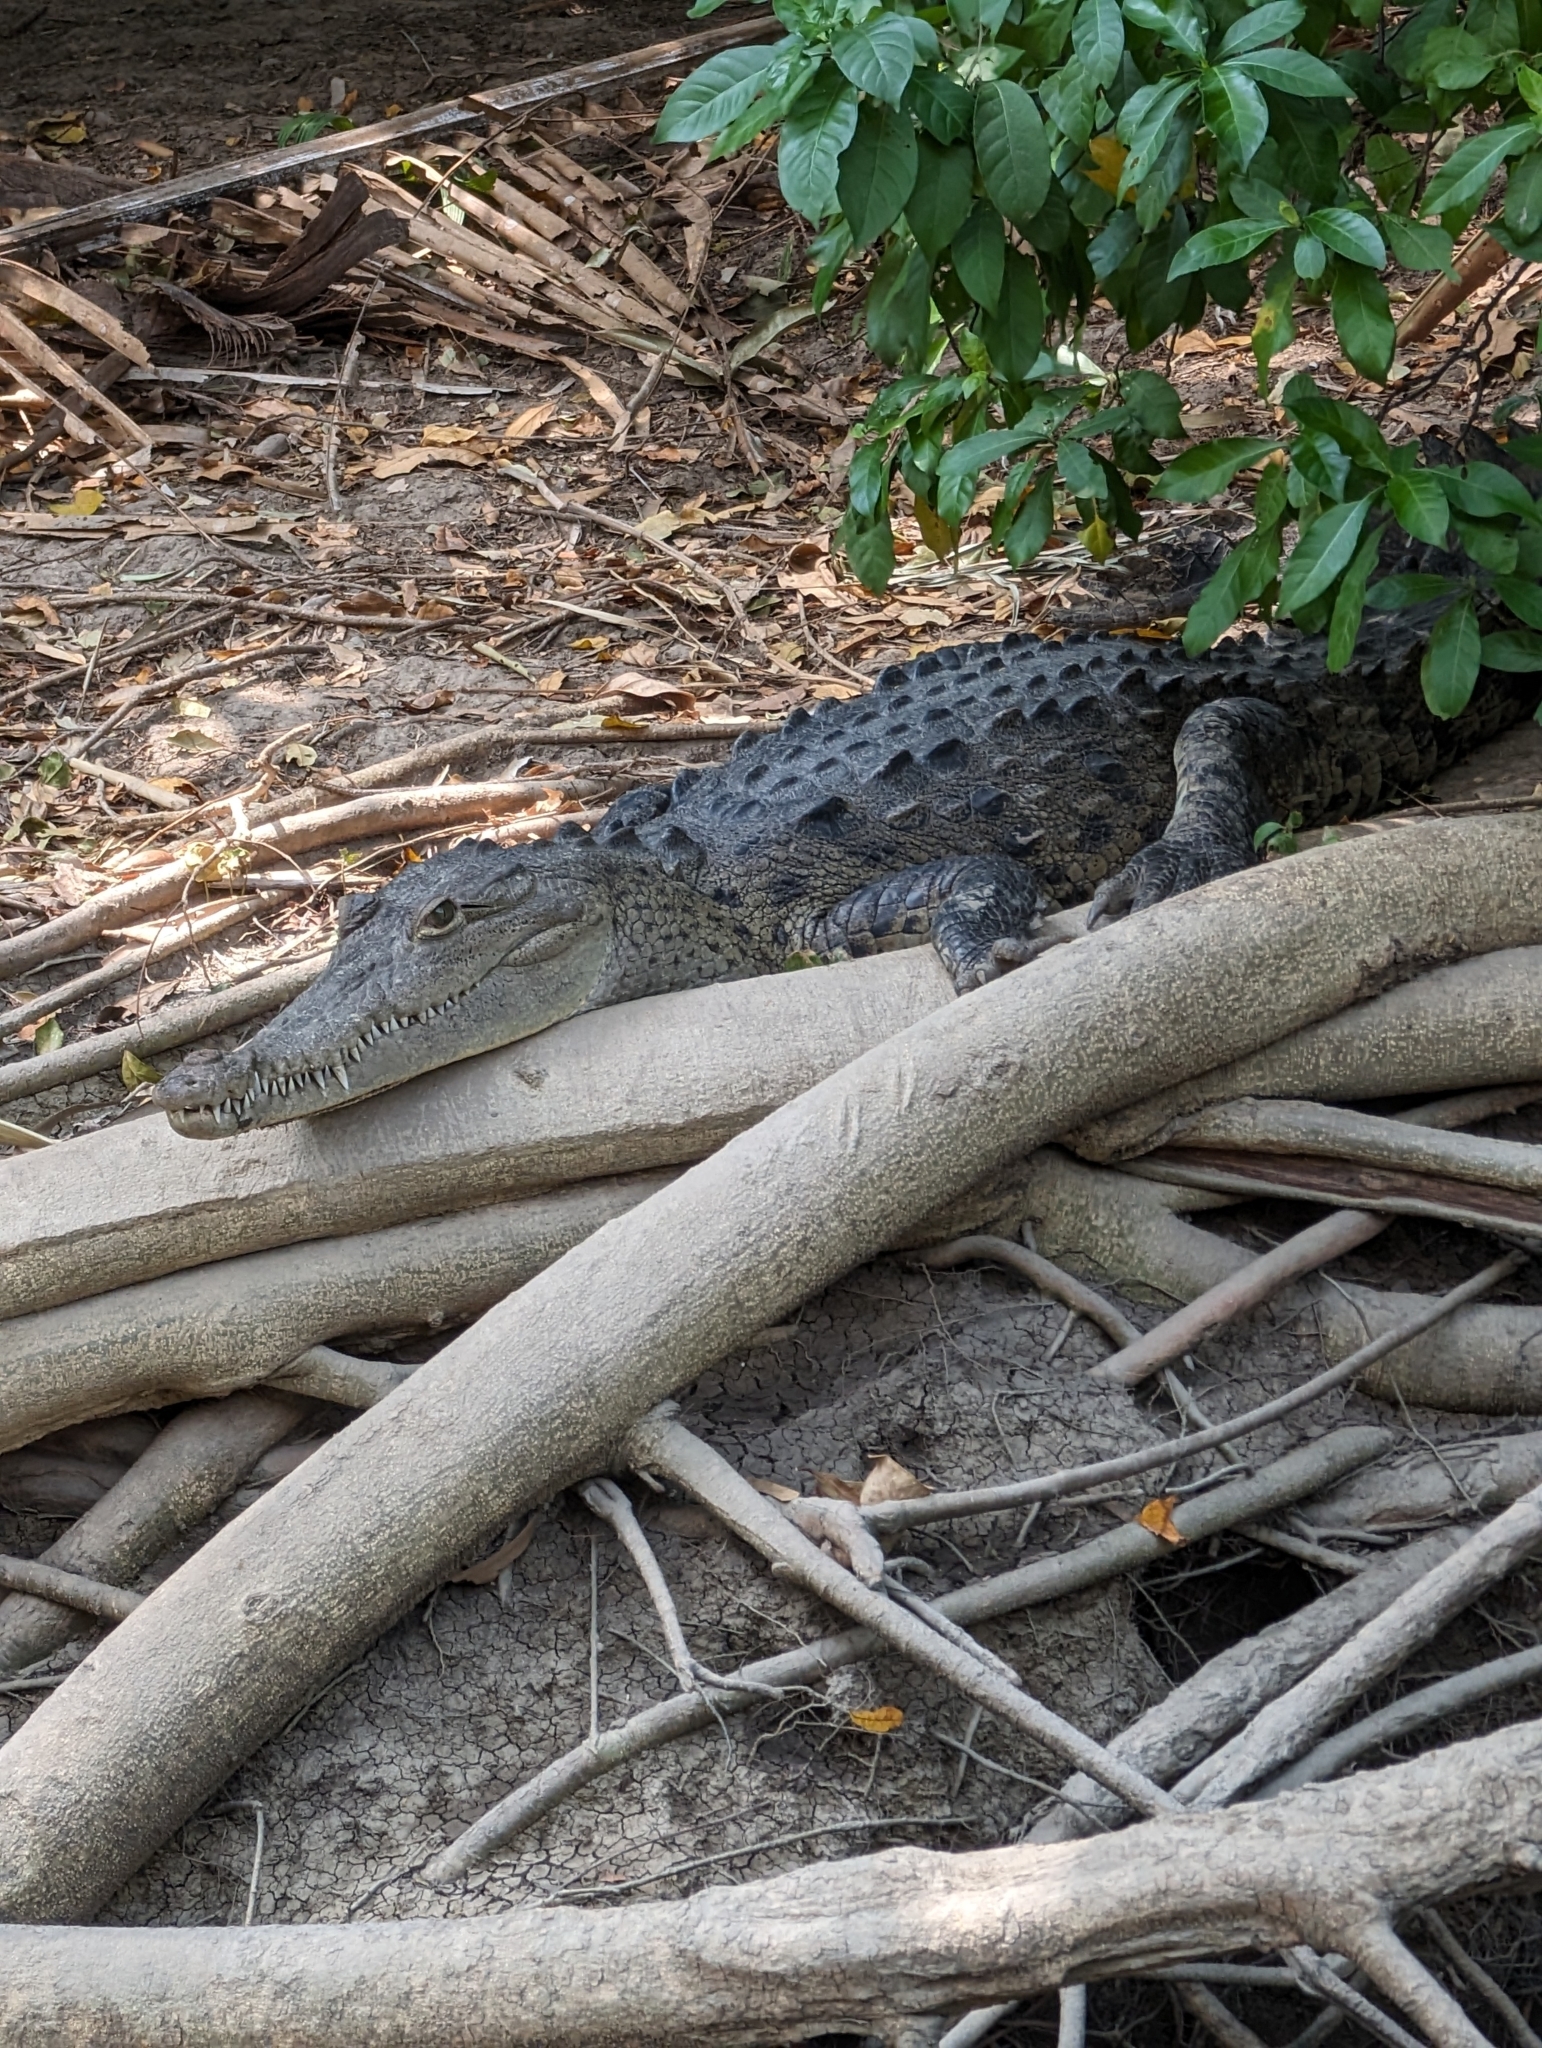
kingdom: Animalia
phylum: Chordata
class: Crocodylia
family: Crocodylidae
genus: Crocodylus
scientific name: Crocodylus acutus
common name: American crocodile
